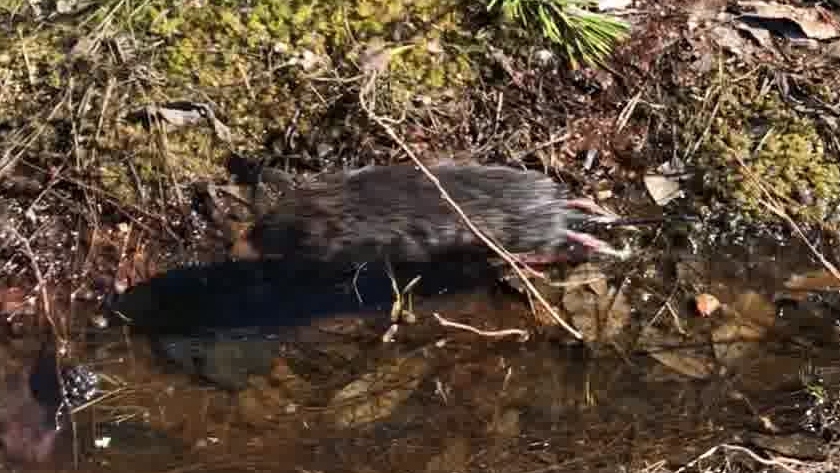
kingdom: Animalia
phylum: Chordata
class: Mammalia
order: Rodentia
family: Cricetidae
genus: Arvicola
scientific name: Arvicola amphibius
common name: European water vole
